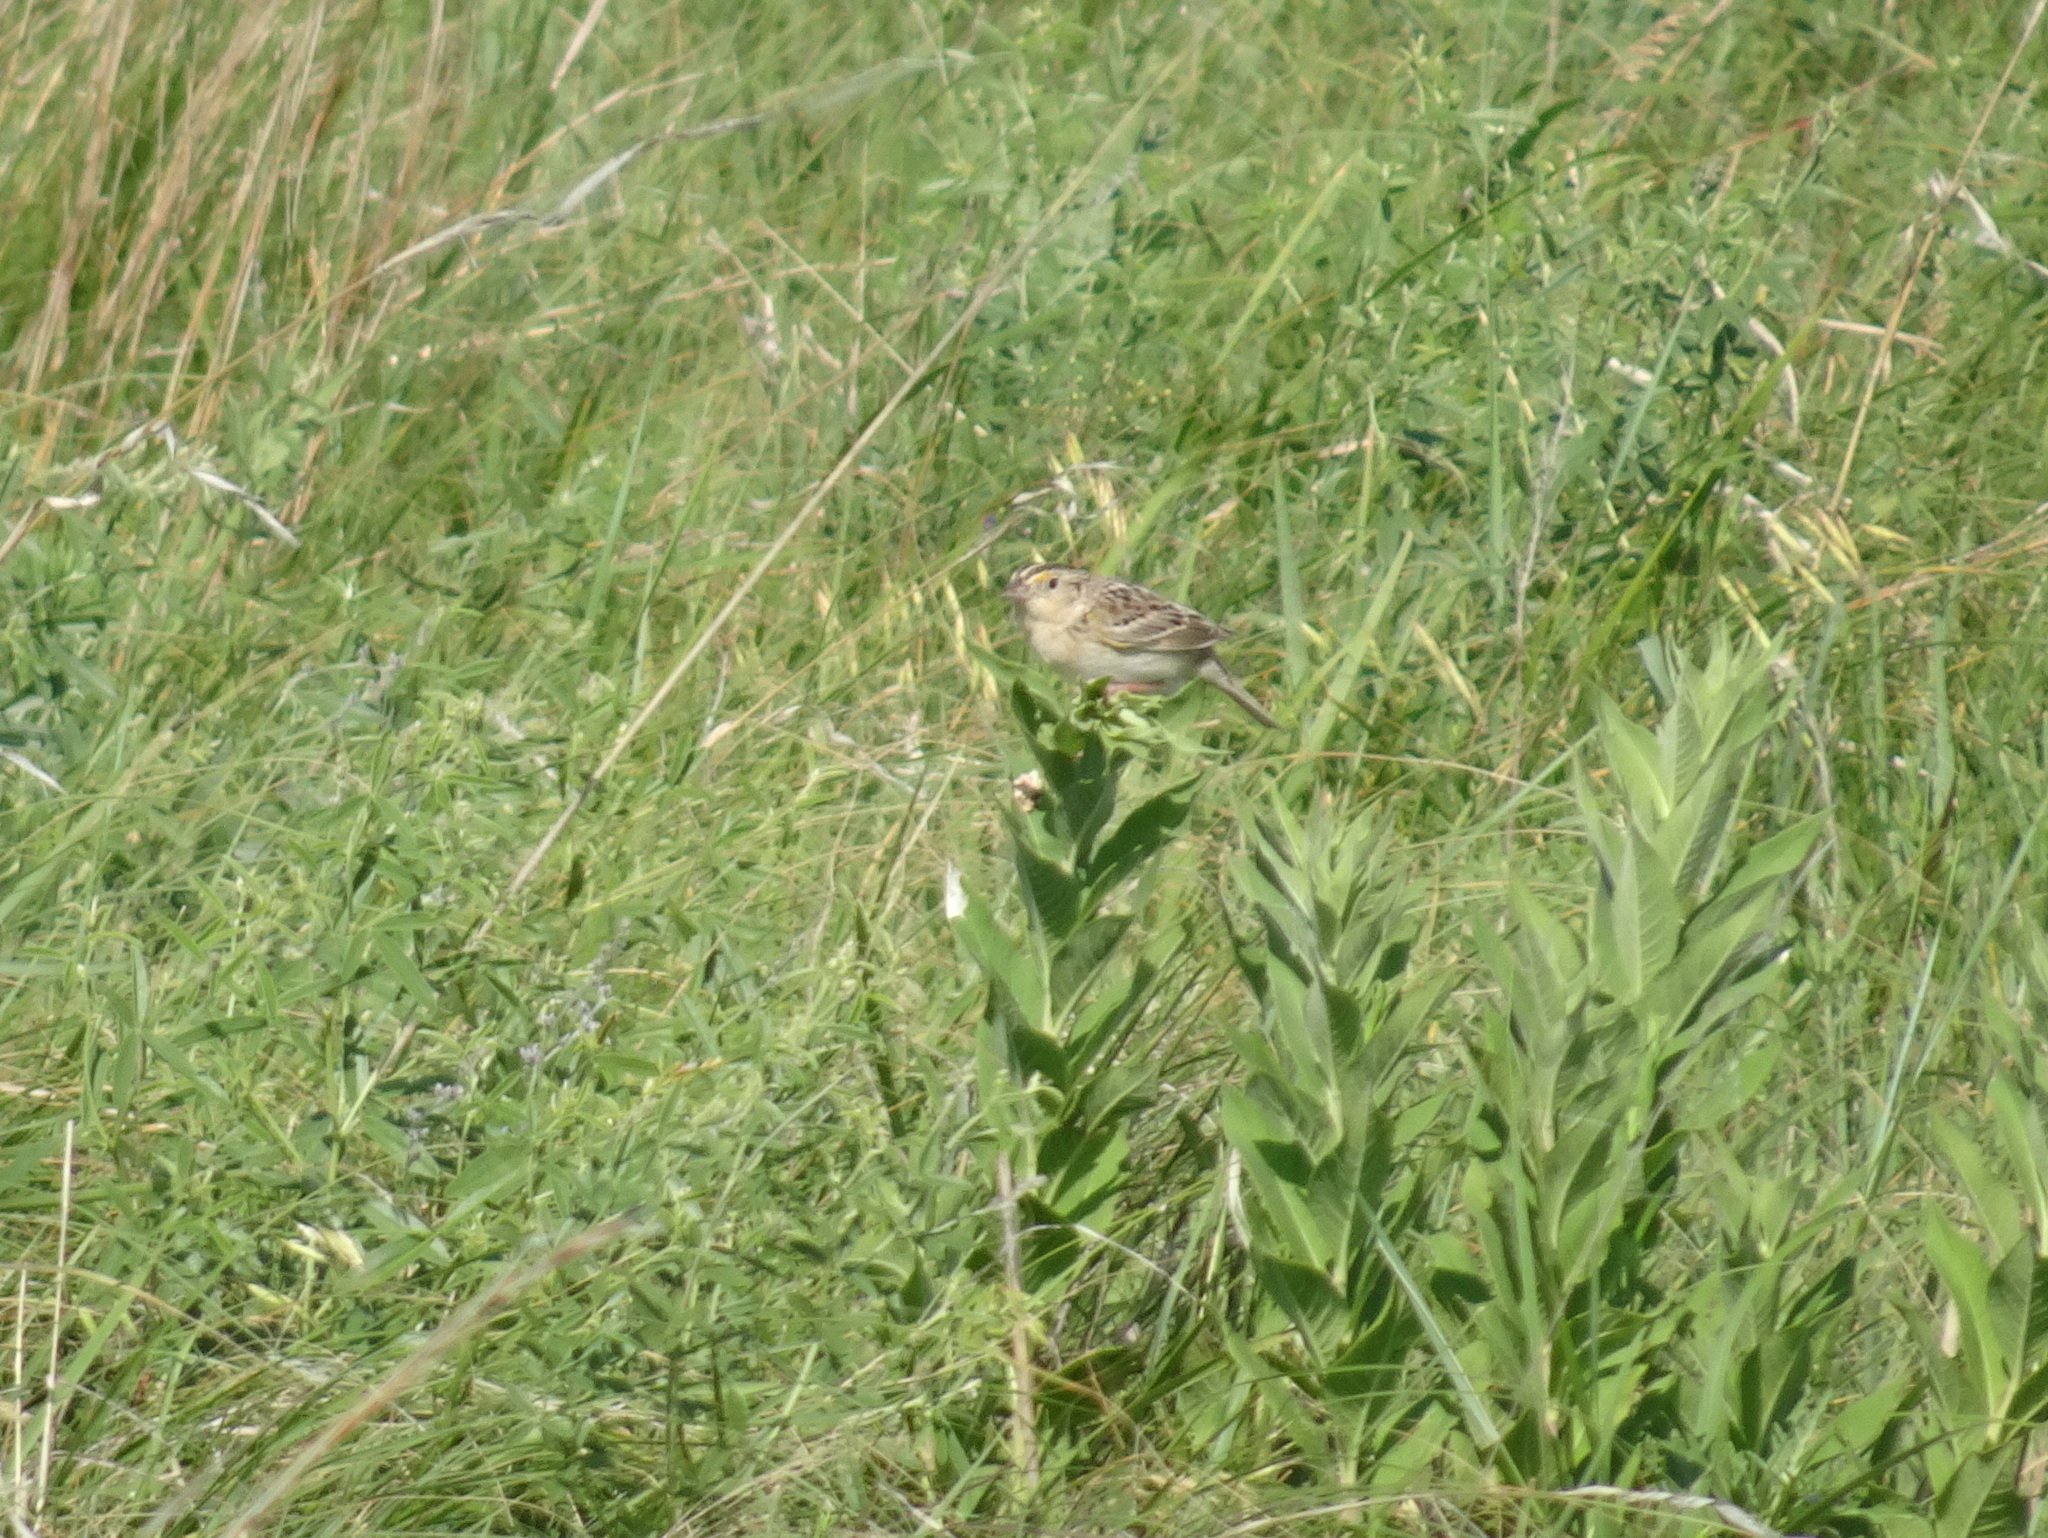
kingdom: Animalia
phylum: Chordata
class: Aves
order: Passeriformes
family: Passerellidae
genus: Ammodramus
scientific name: Ammodramus savannarum
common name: Grasshopper sparrow
